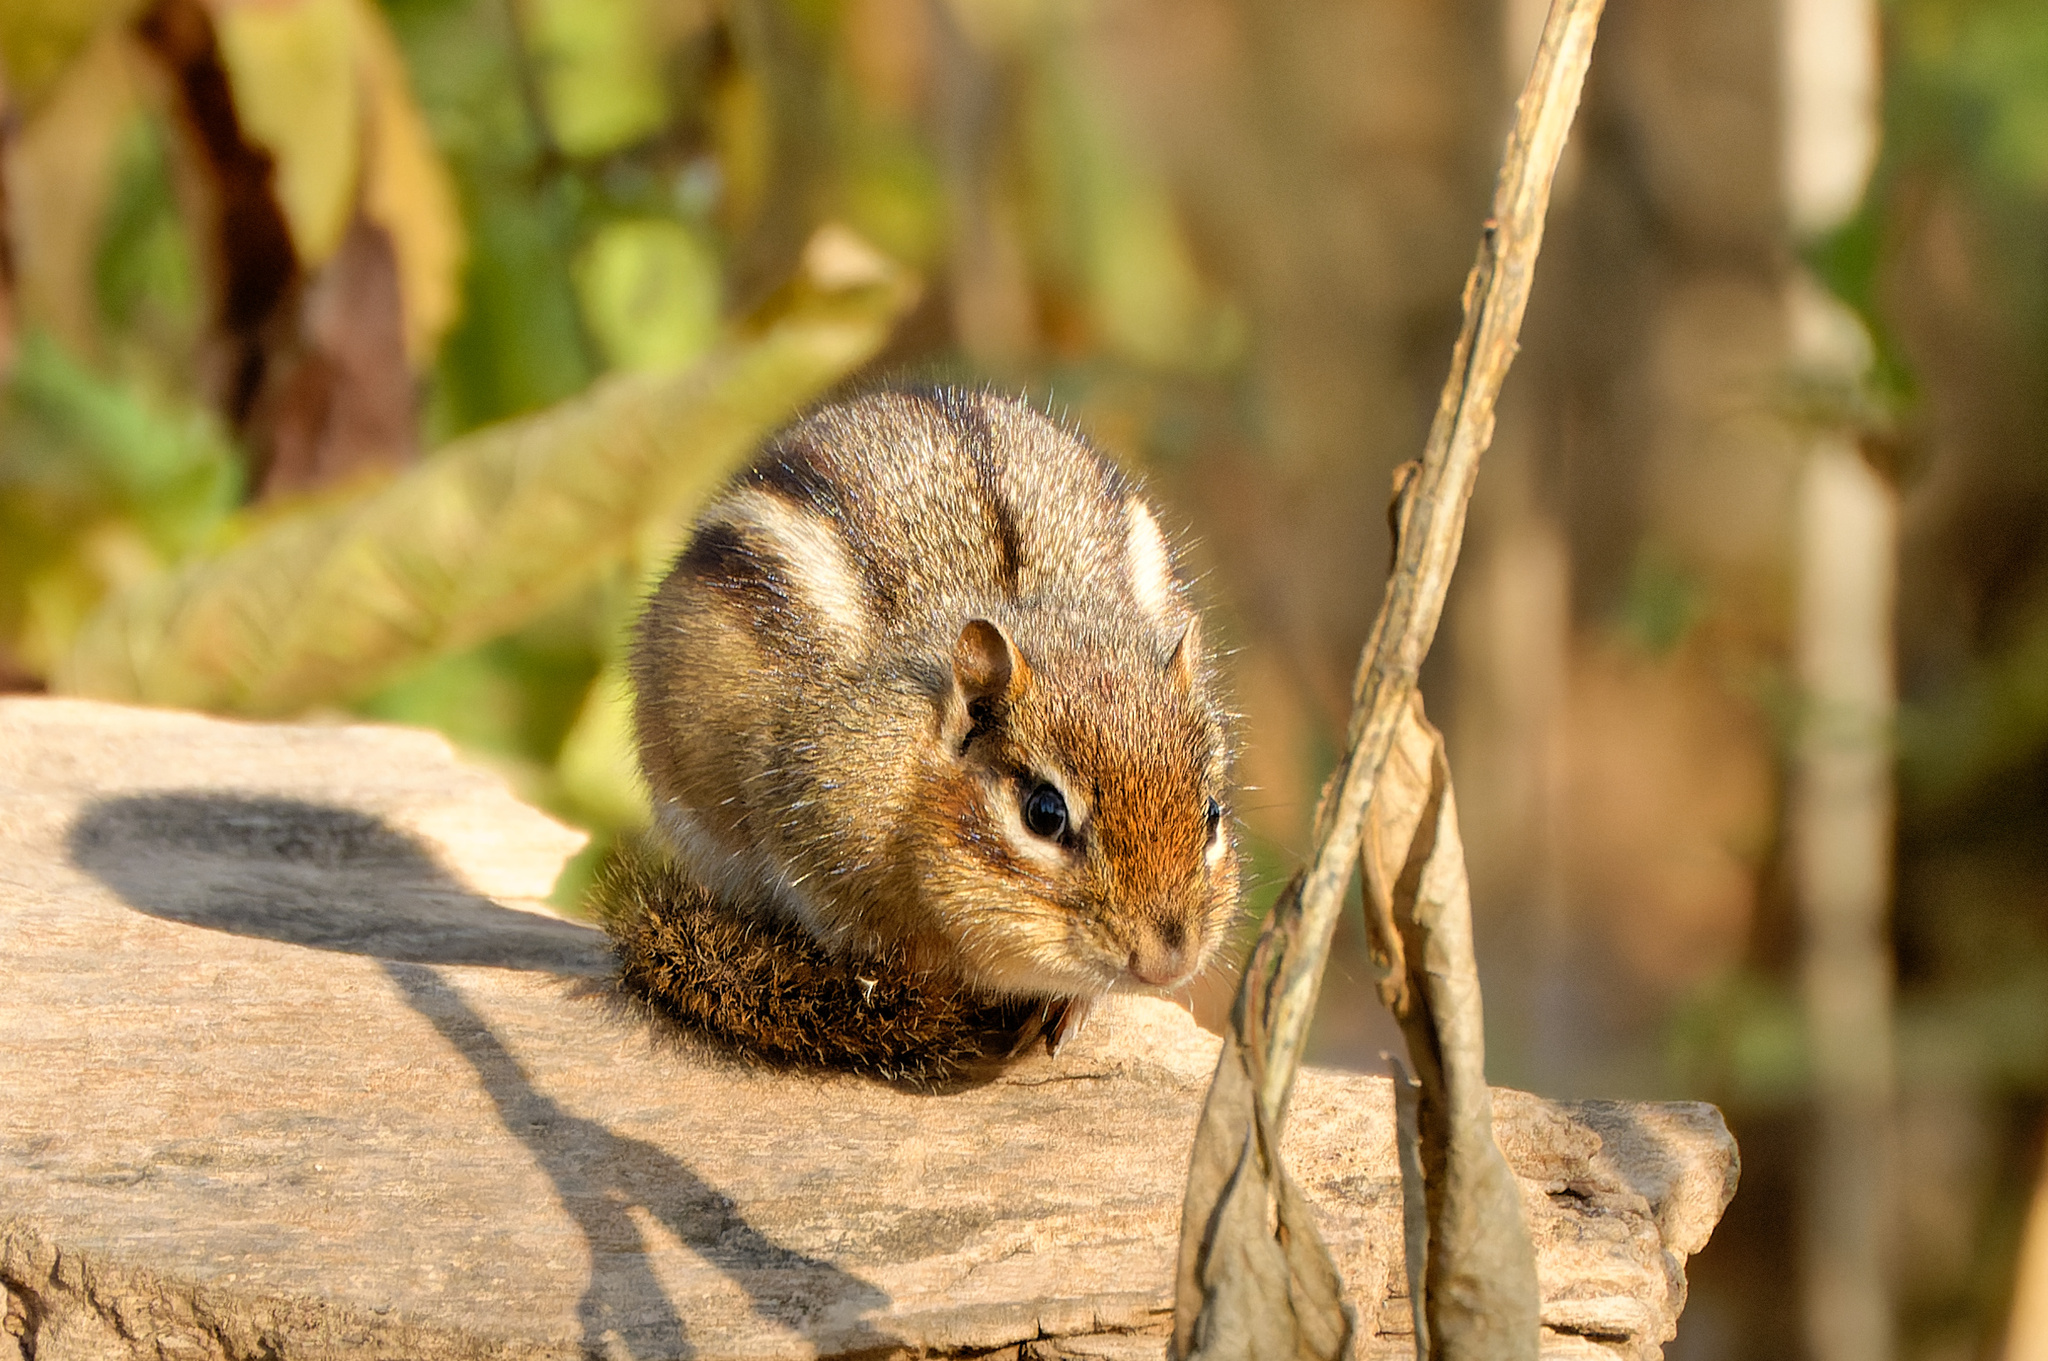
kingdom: Animalia
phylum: Chordata
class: Mammalia
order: Rodentia
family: Sciuridae
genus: Tamias
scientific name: Tamias striatus
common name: Eastern chipmunk
